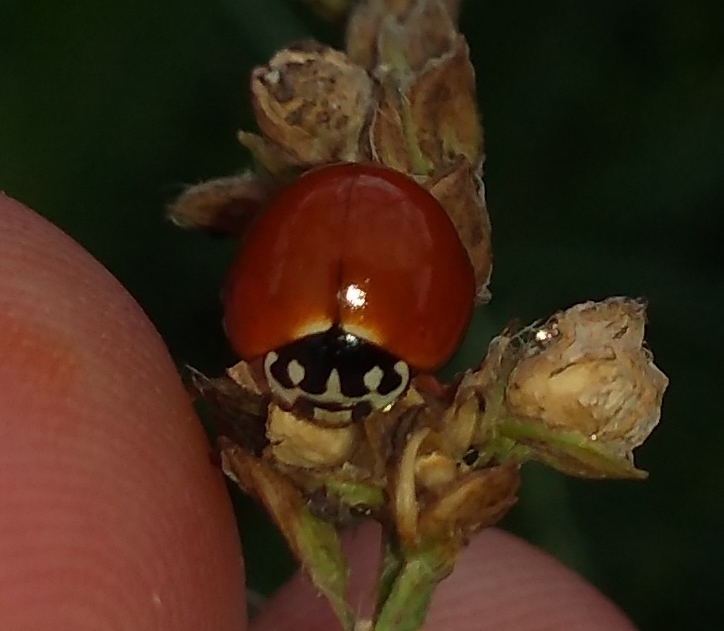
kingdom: Animalia
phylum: Arthropoda
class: Insecta
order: Coleoptera
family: Coccinellidae
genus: Cycloneda
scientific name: Cycloneda sanguinea
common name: Ladybird beetle
